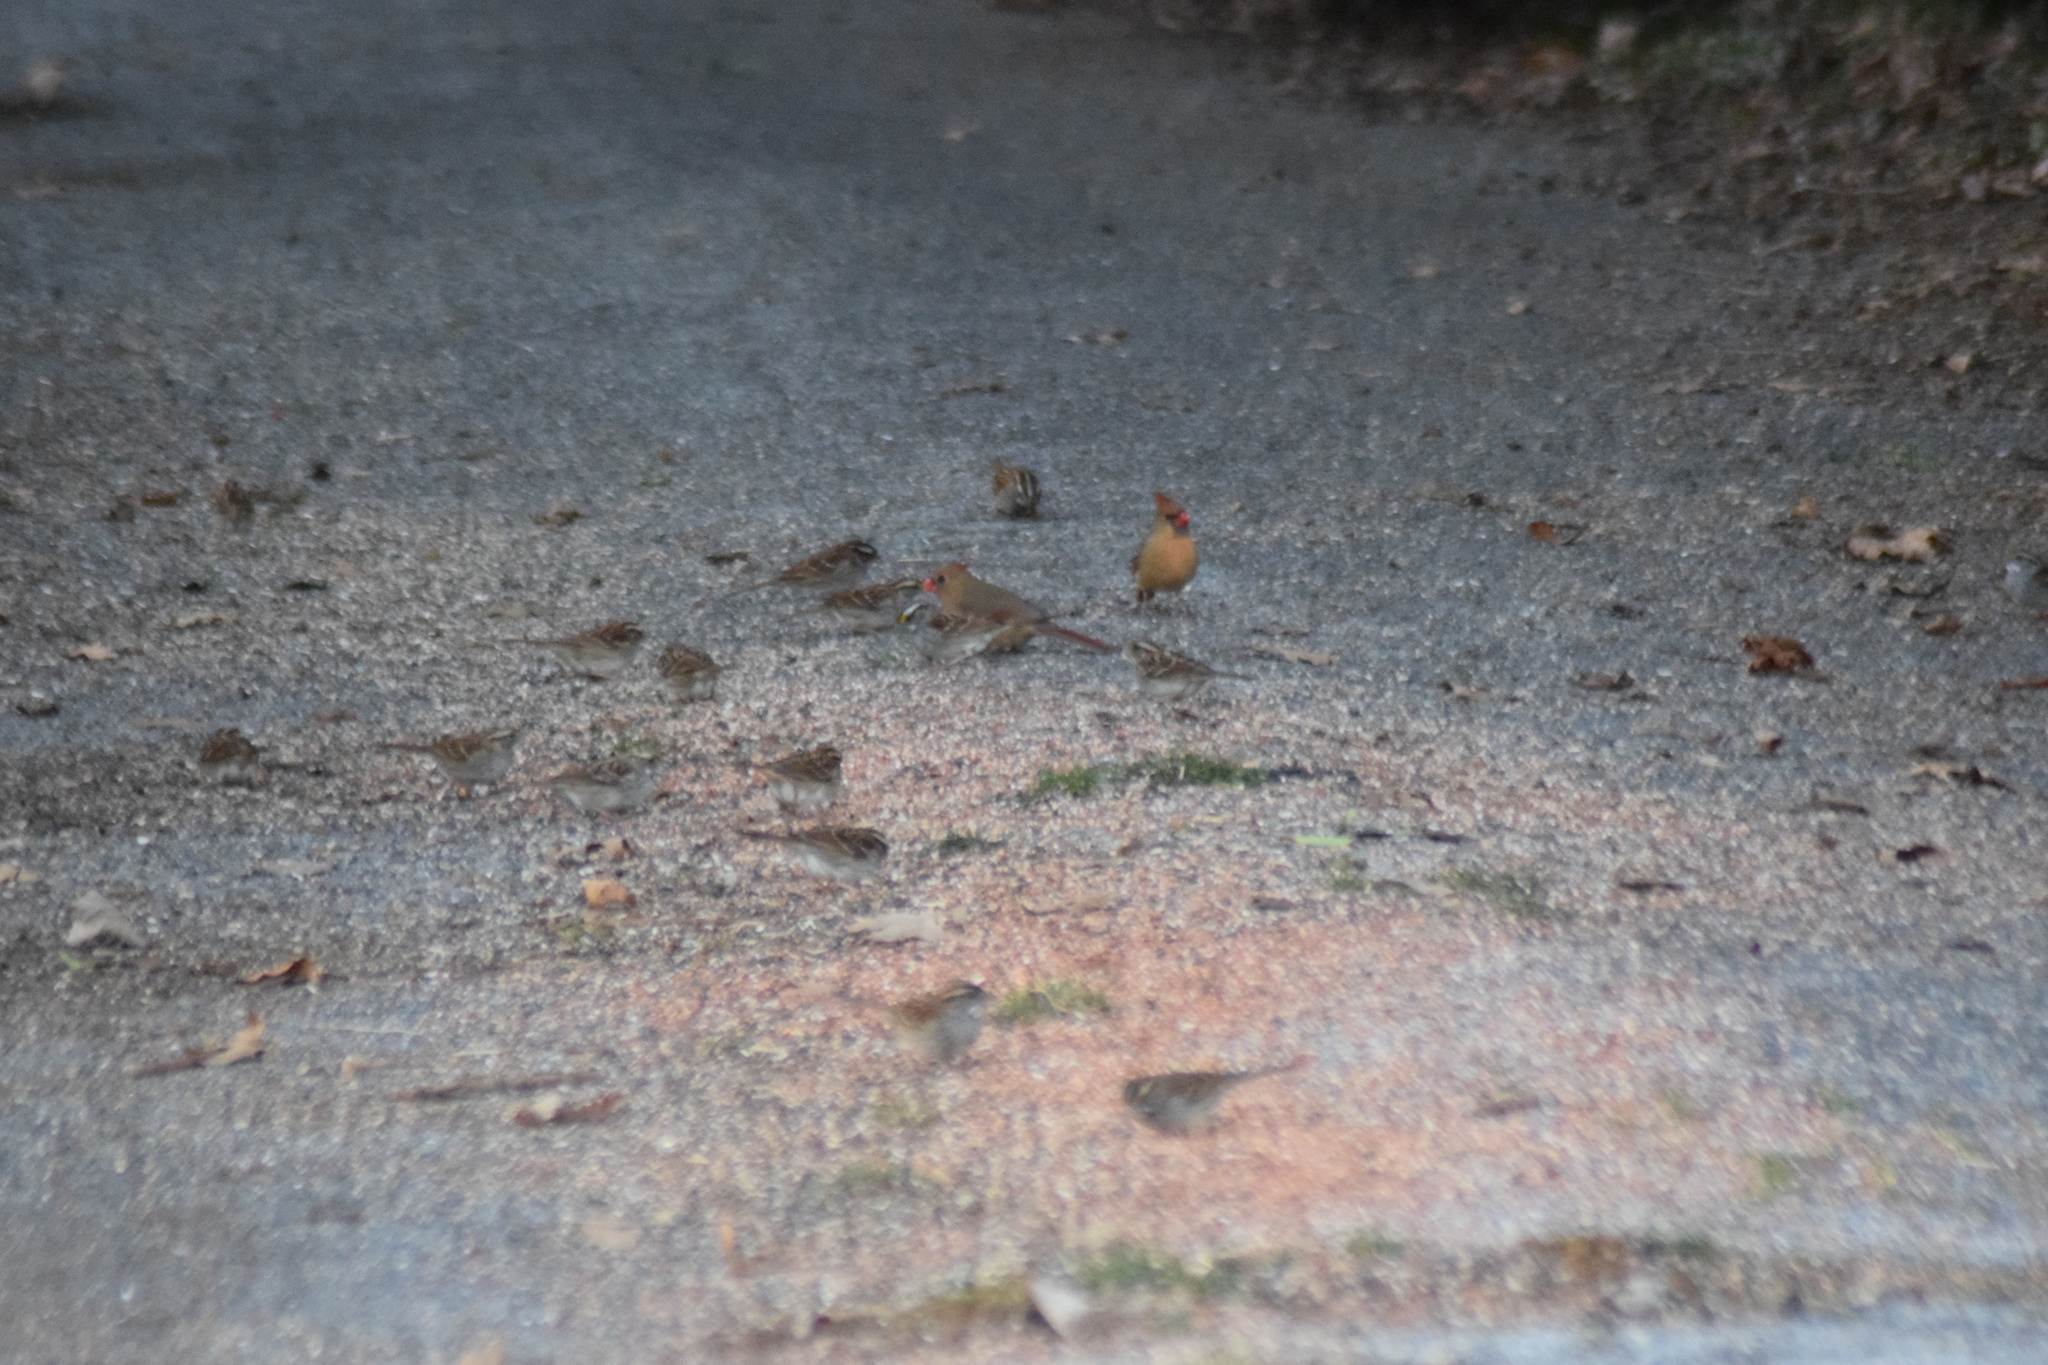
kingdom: Animalia
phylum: Chordata
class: Aves
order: Passeriformes
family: Cardinalidae
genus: Cardinalis
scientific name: Cardinalis cardinalis
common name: Northern cardinal
